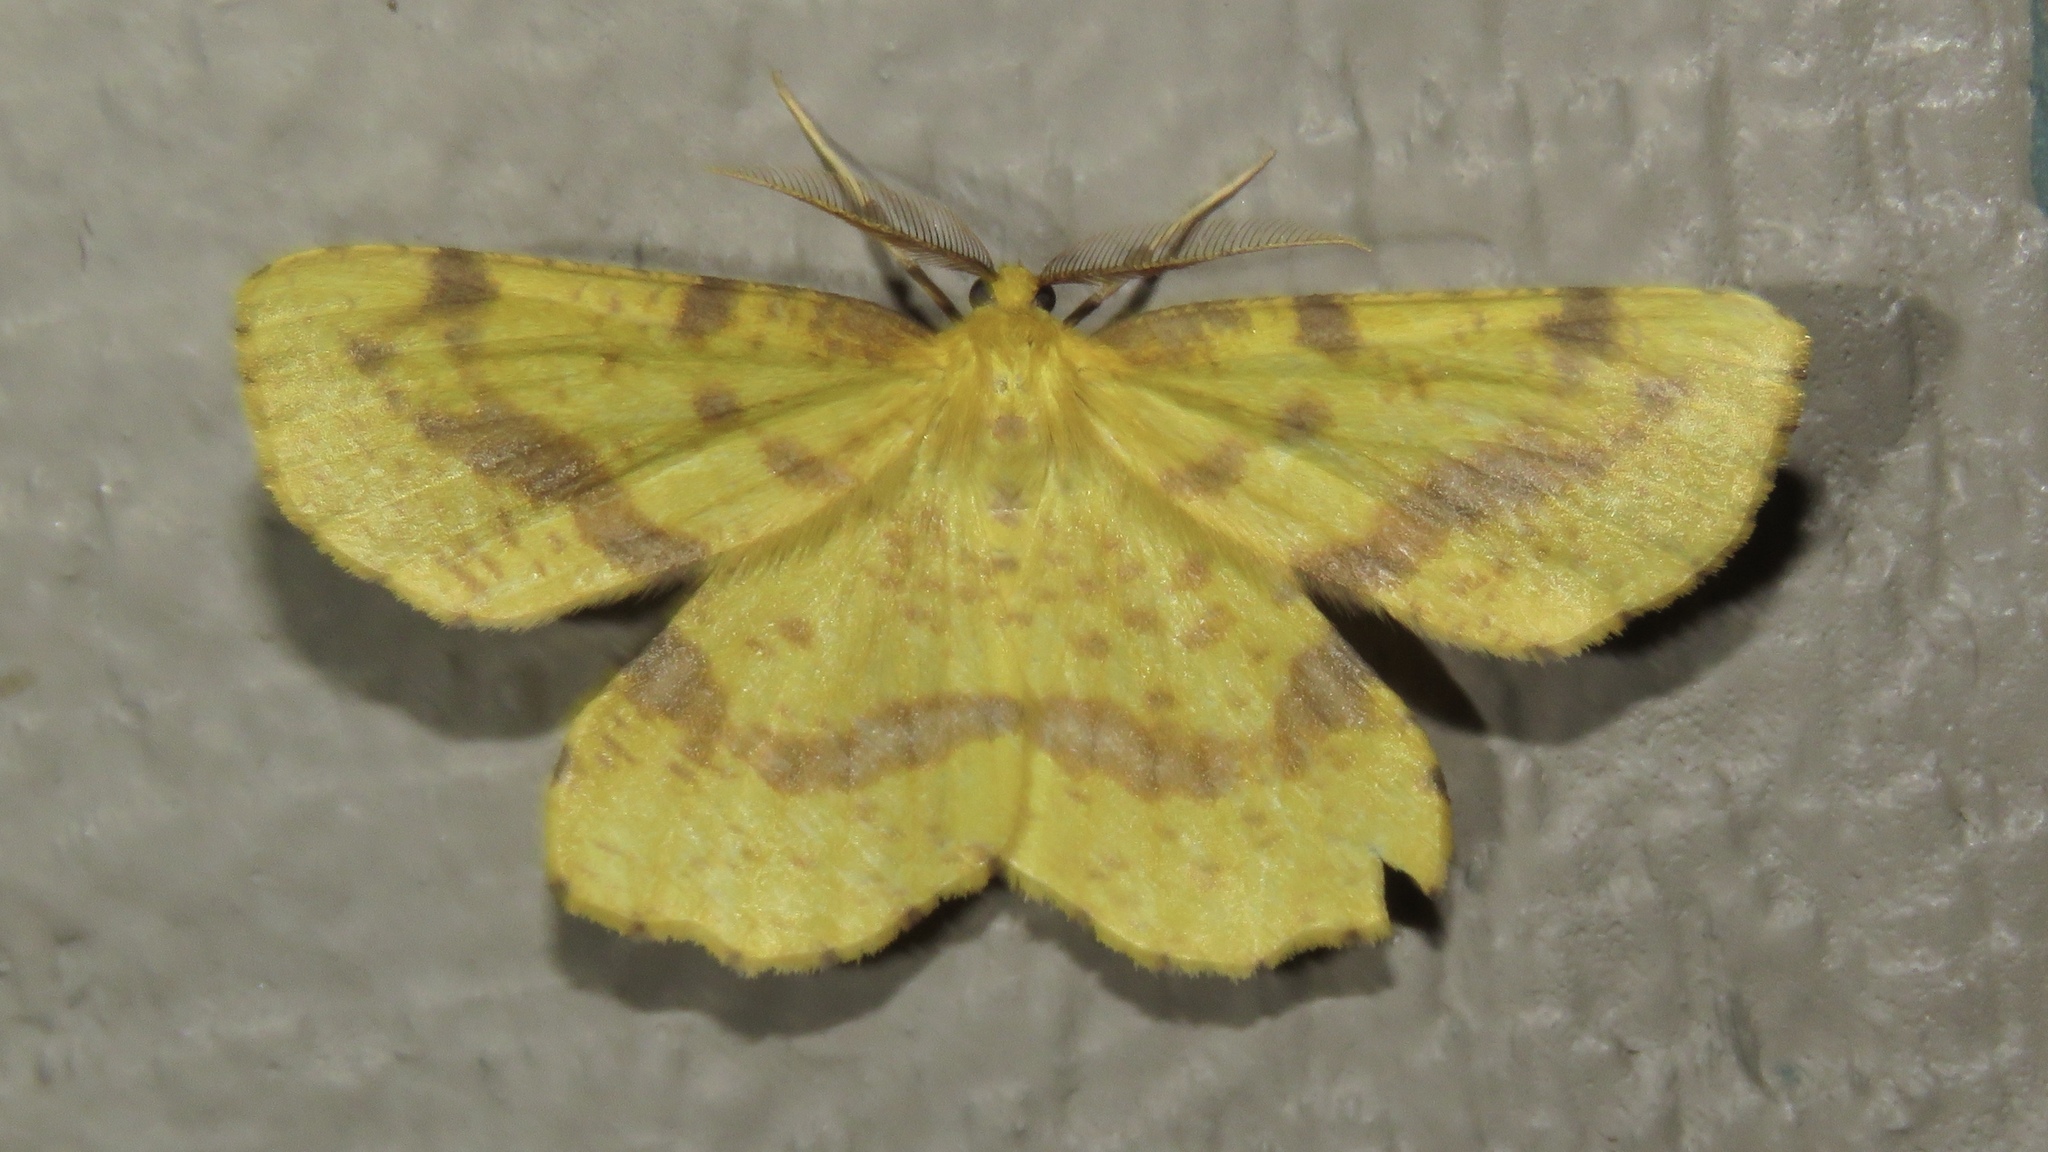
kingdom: Animalia
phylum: Arthropoda
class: Insecta
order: Lepidoptera
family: Geometridae
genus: Xanthotype
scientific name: Xanthotype
